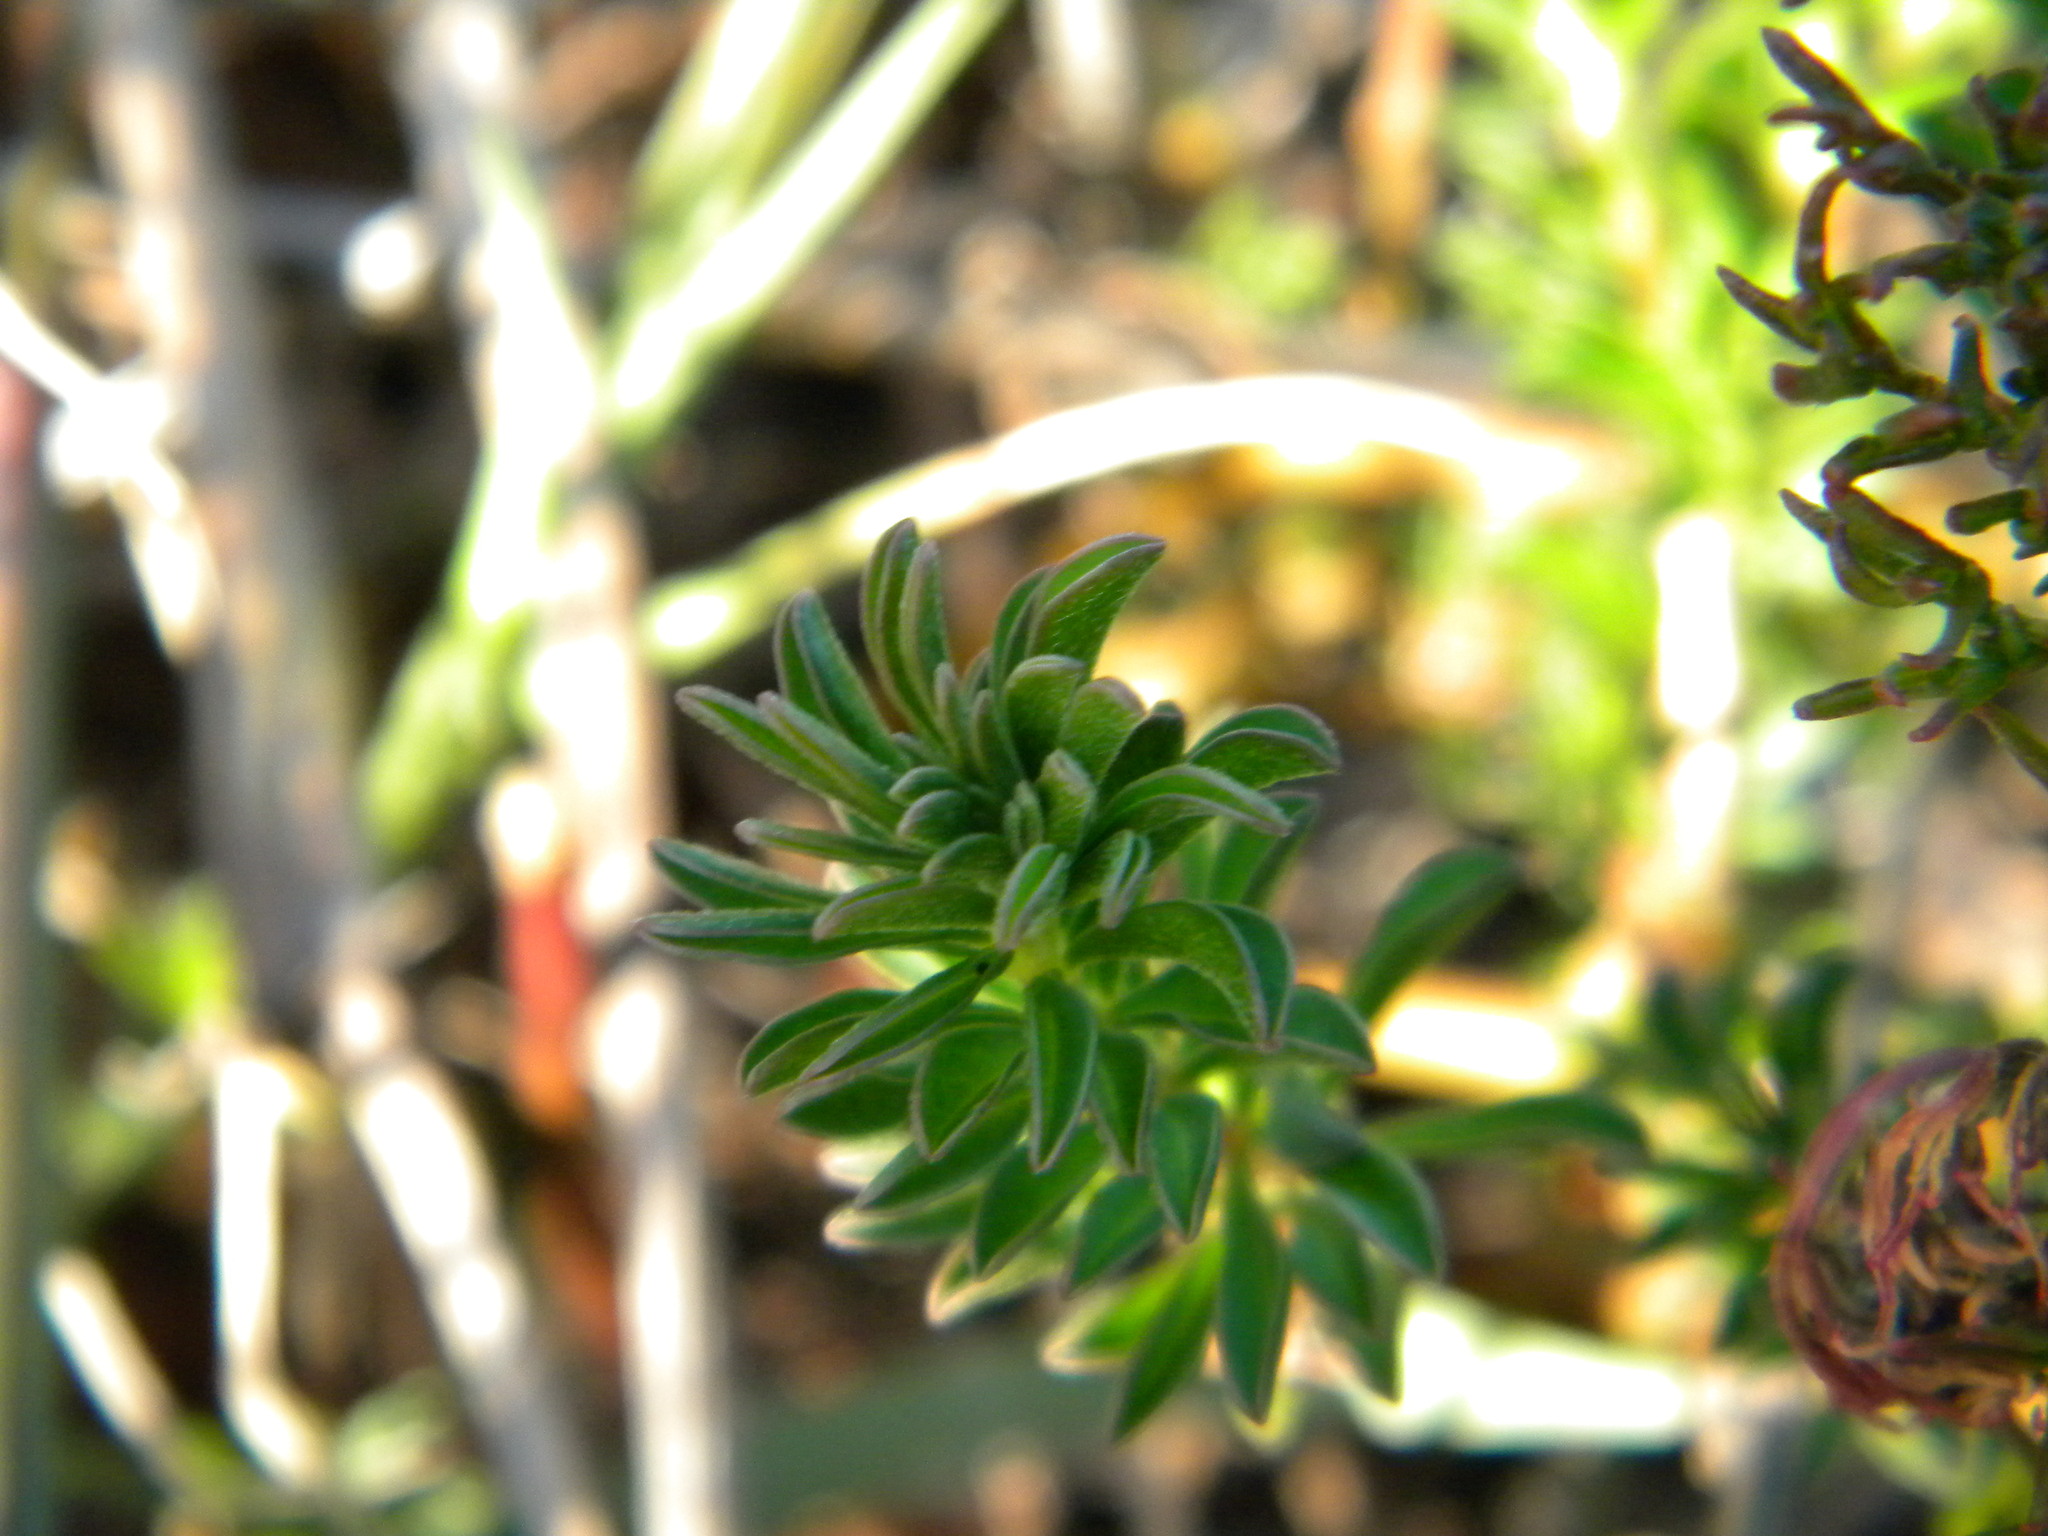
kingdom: Plantae
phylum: Tracheophyta
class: Magnoliopsida
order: Oxalidales
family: Oxalidaceae
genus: Oxalis
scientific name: Oxalis hirta
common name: Tropical woodsorrel
